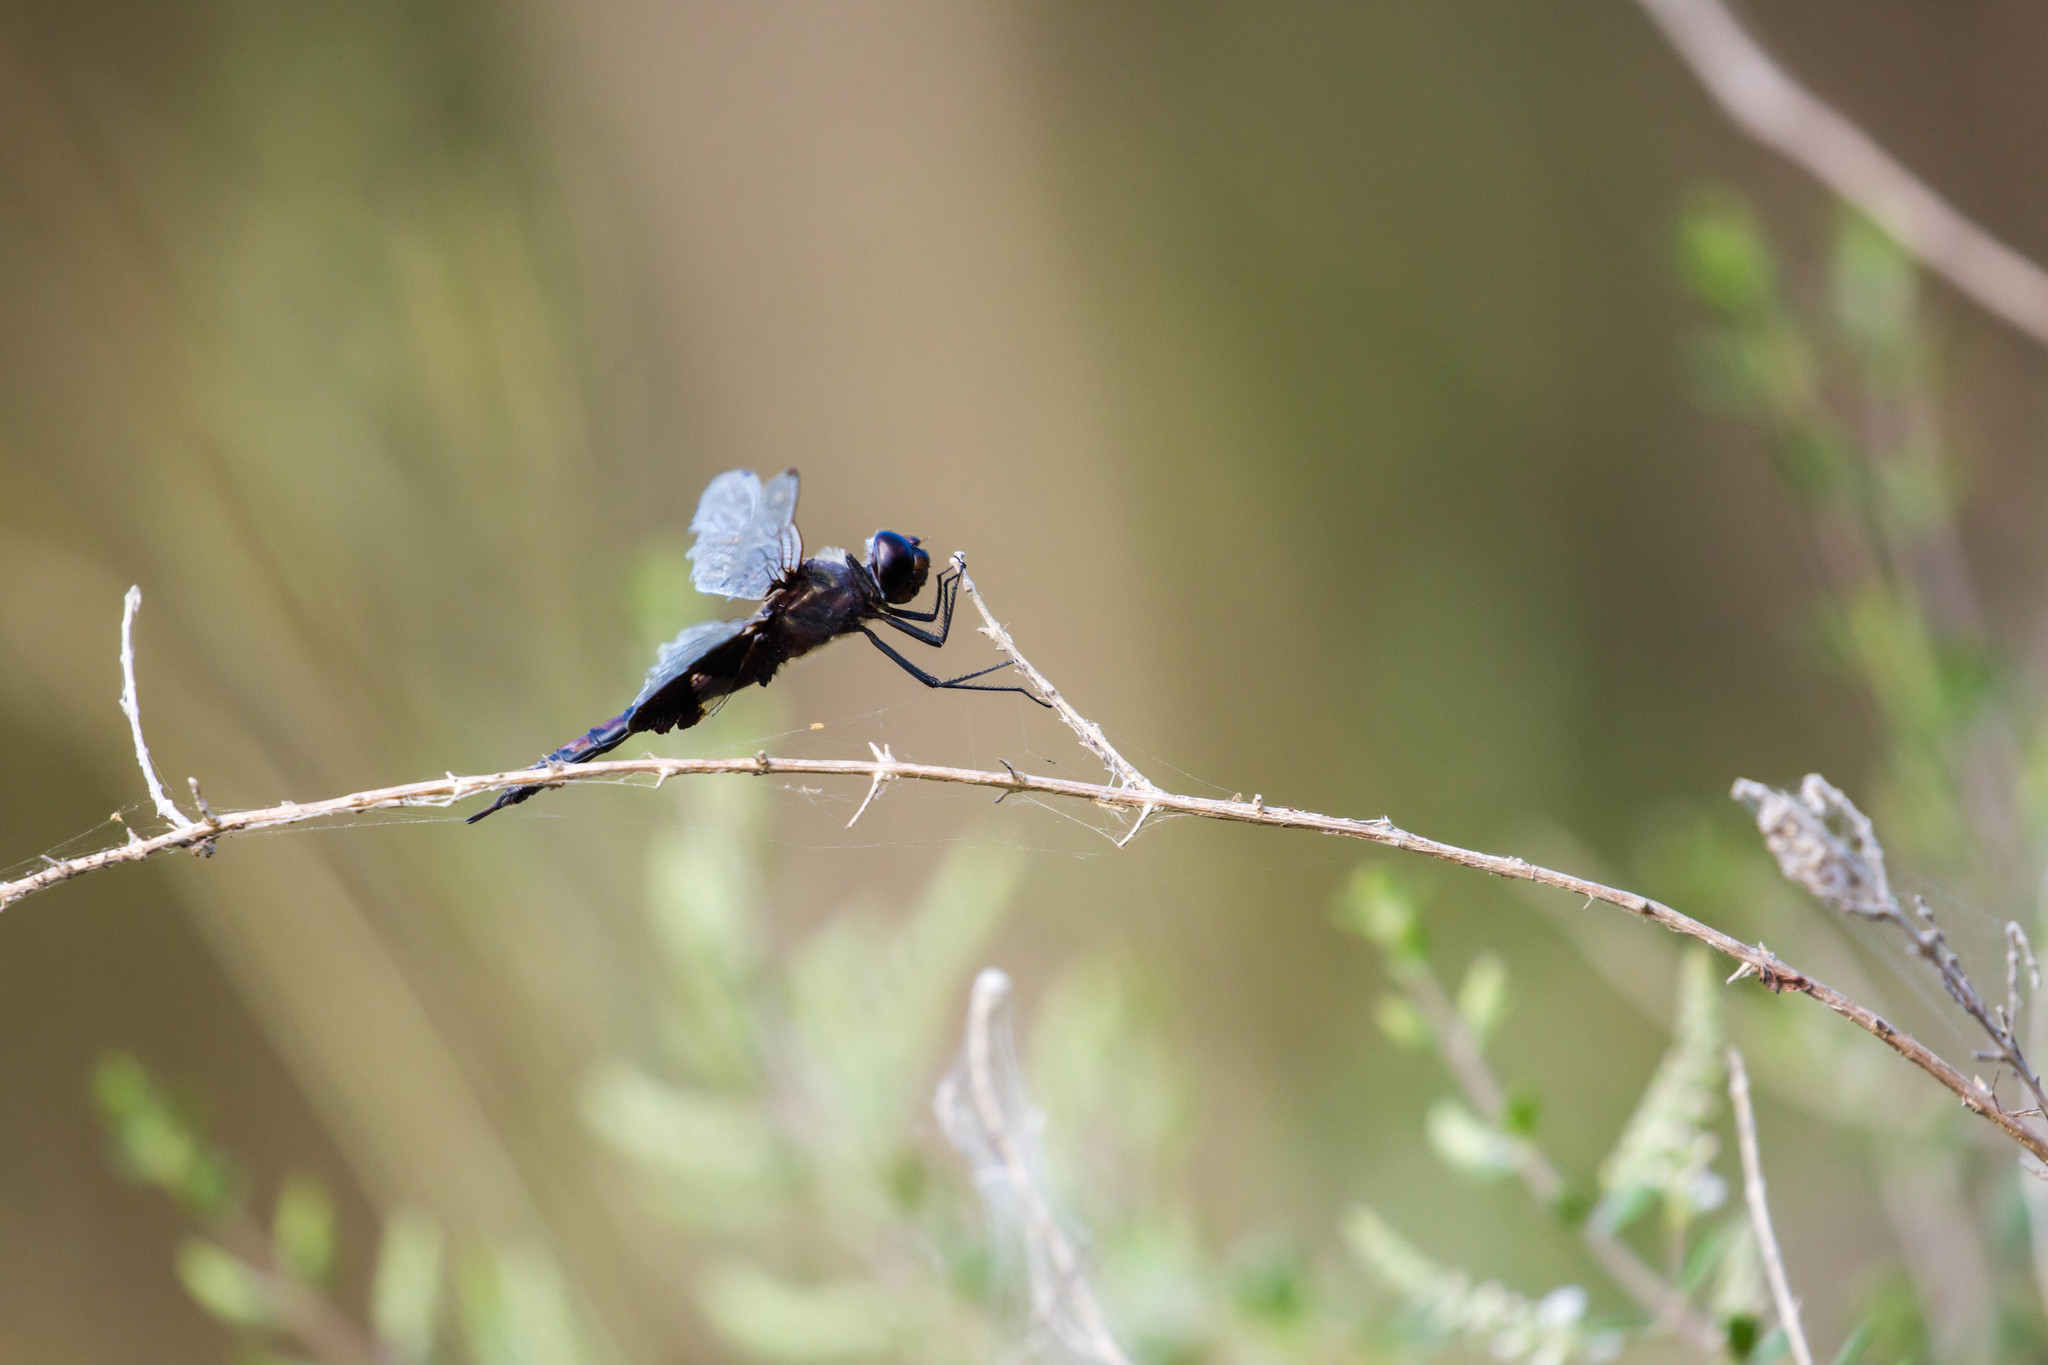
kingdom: Animalia
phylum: Arthropoda
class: Insecta
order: Odonata
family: Libellulidae
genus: Tramea
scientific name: Tramea lacerata
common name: Black saddlebags
